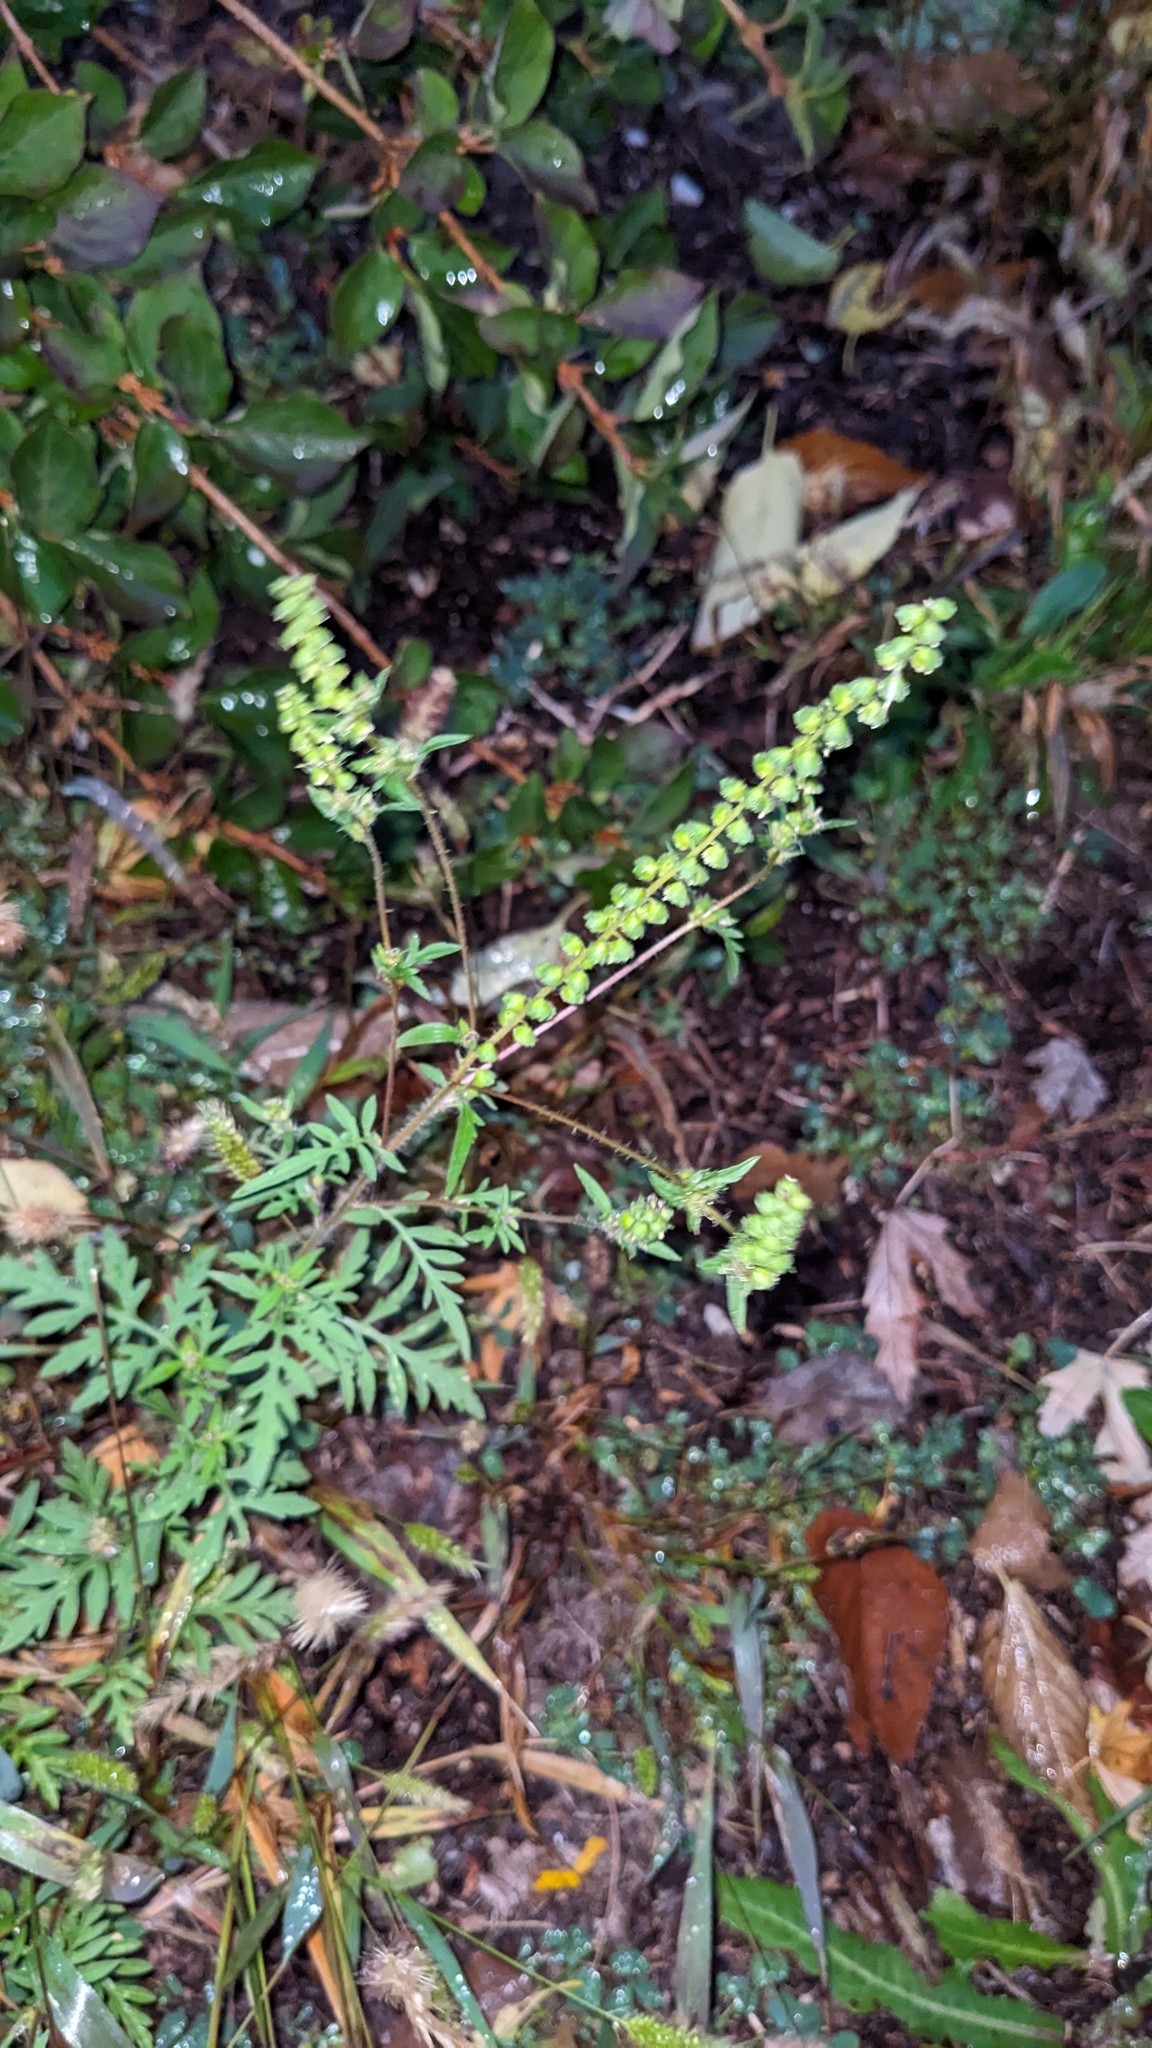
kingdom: Plantae
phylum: Tracheophyta
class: Magnoliopsida
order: Asterales
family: Asteraceae
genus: Ambrosia
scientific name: Ambrosia artemisiifolia
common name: Annual ragweed
